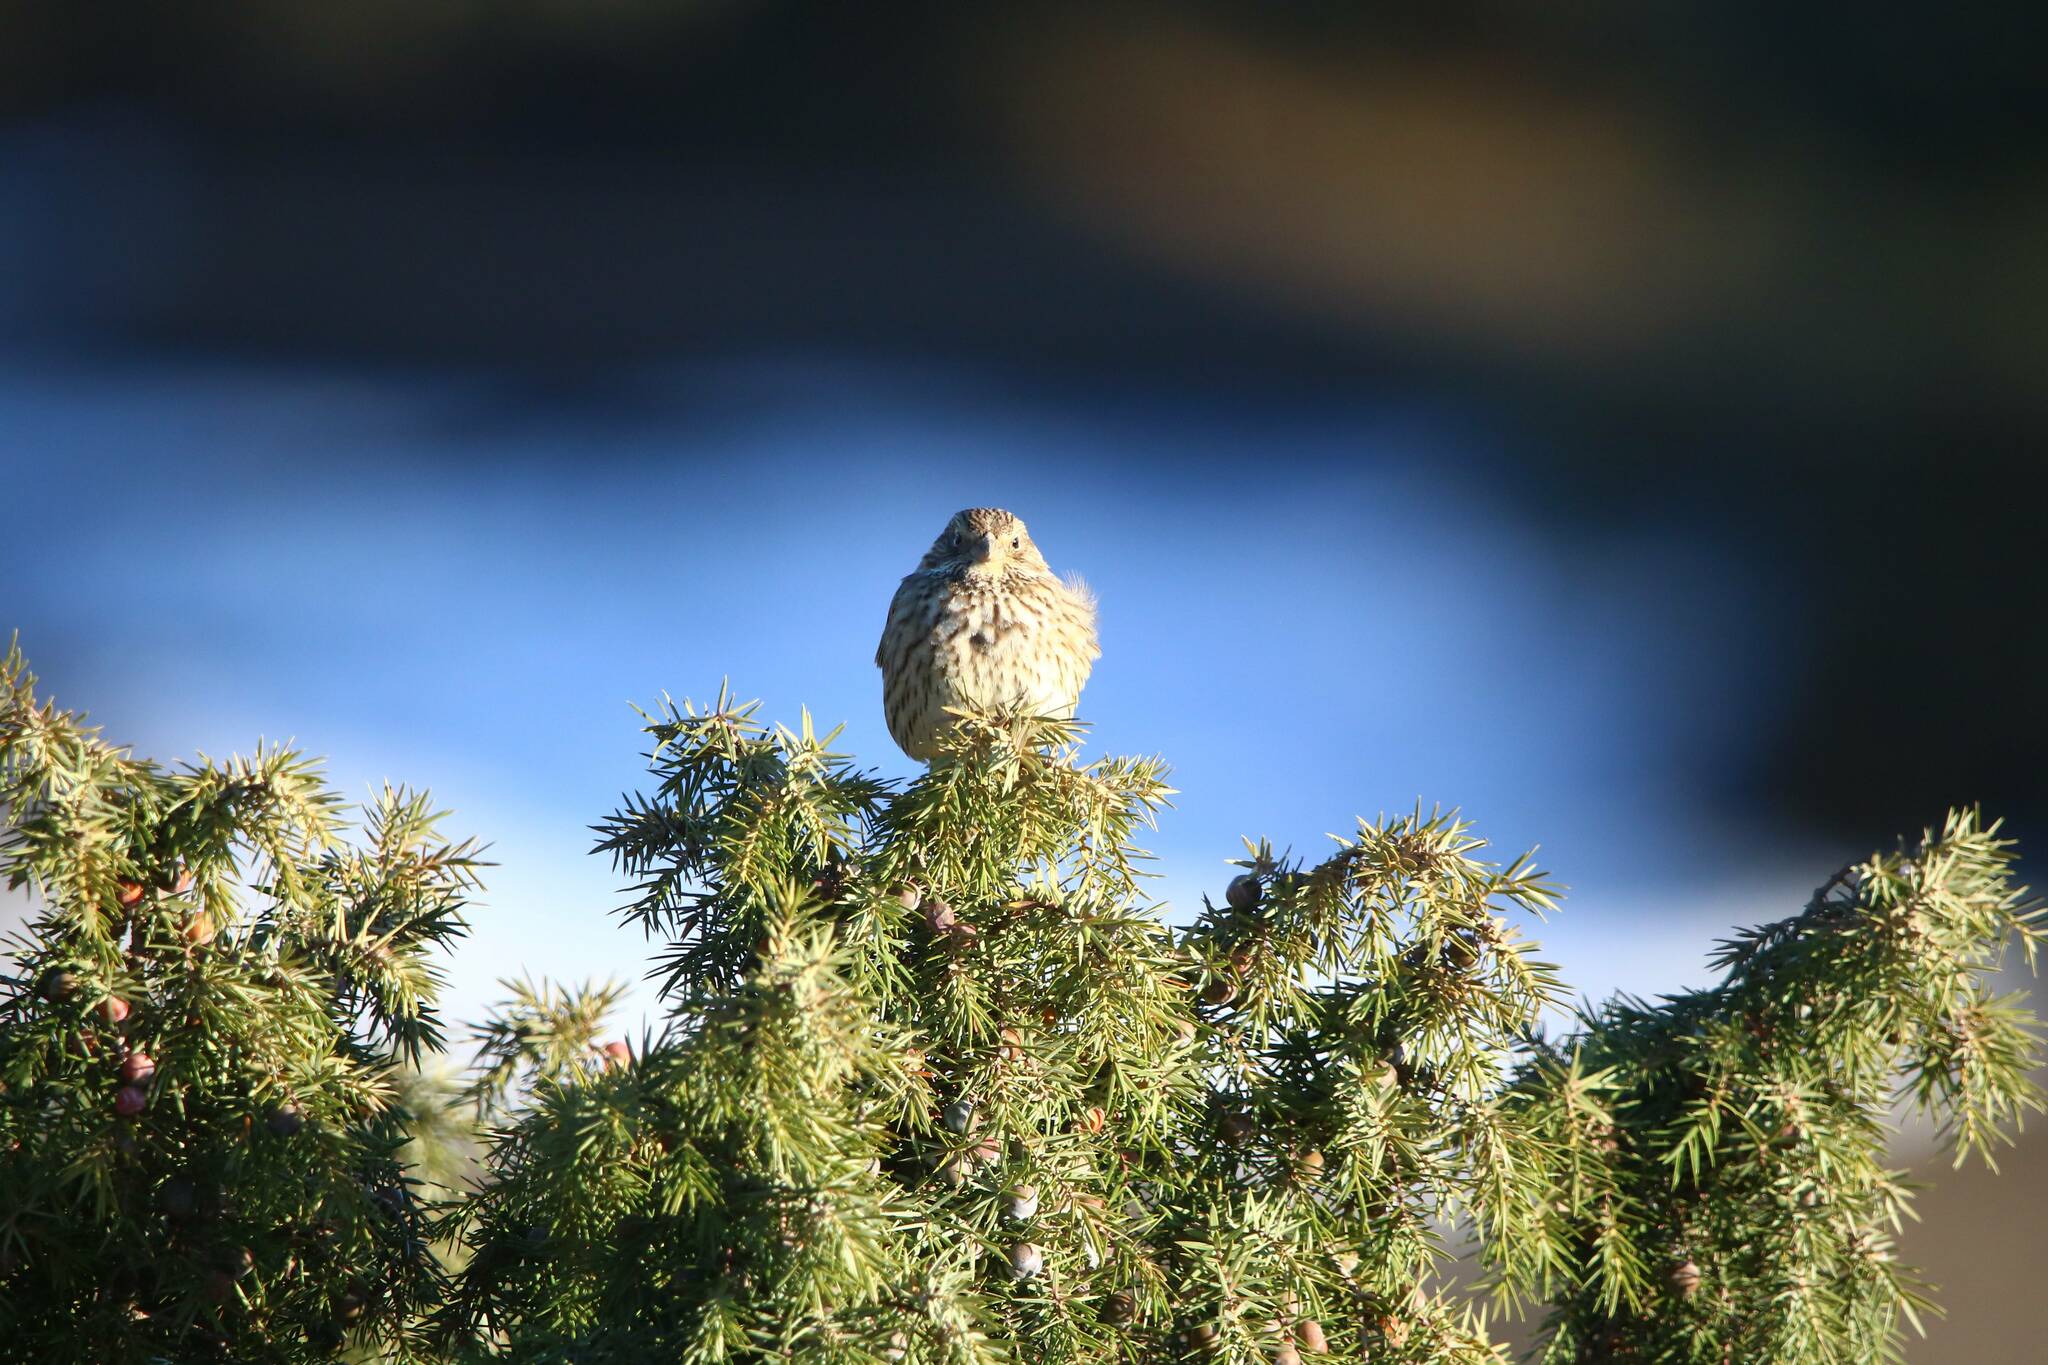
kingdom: Animalia
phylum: Chordata
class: Aves
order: Passeriformes
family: Emberizidae
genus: Emberiza
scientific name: Emberiza calandra
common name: Corn bunting
